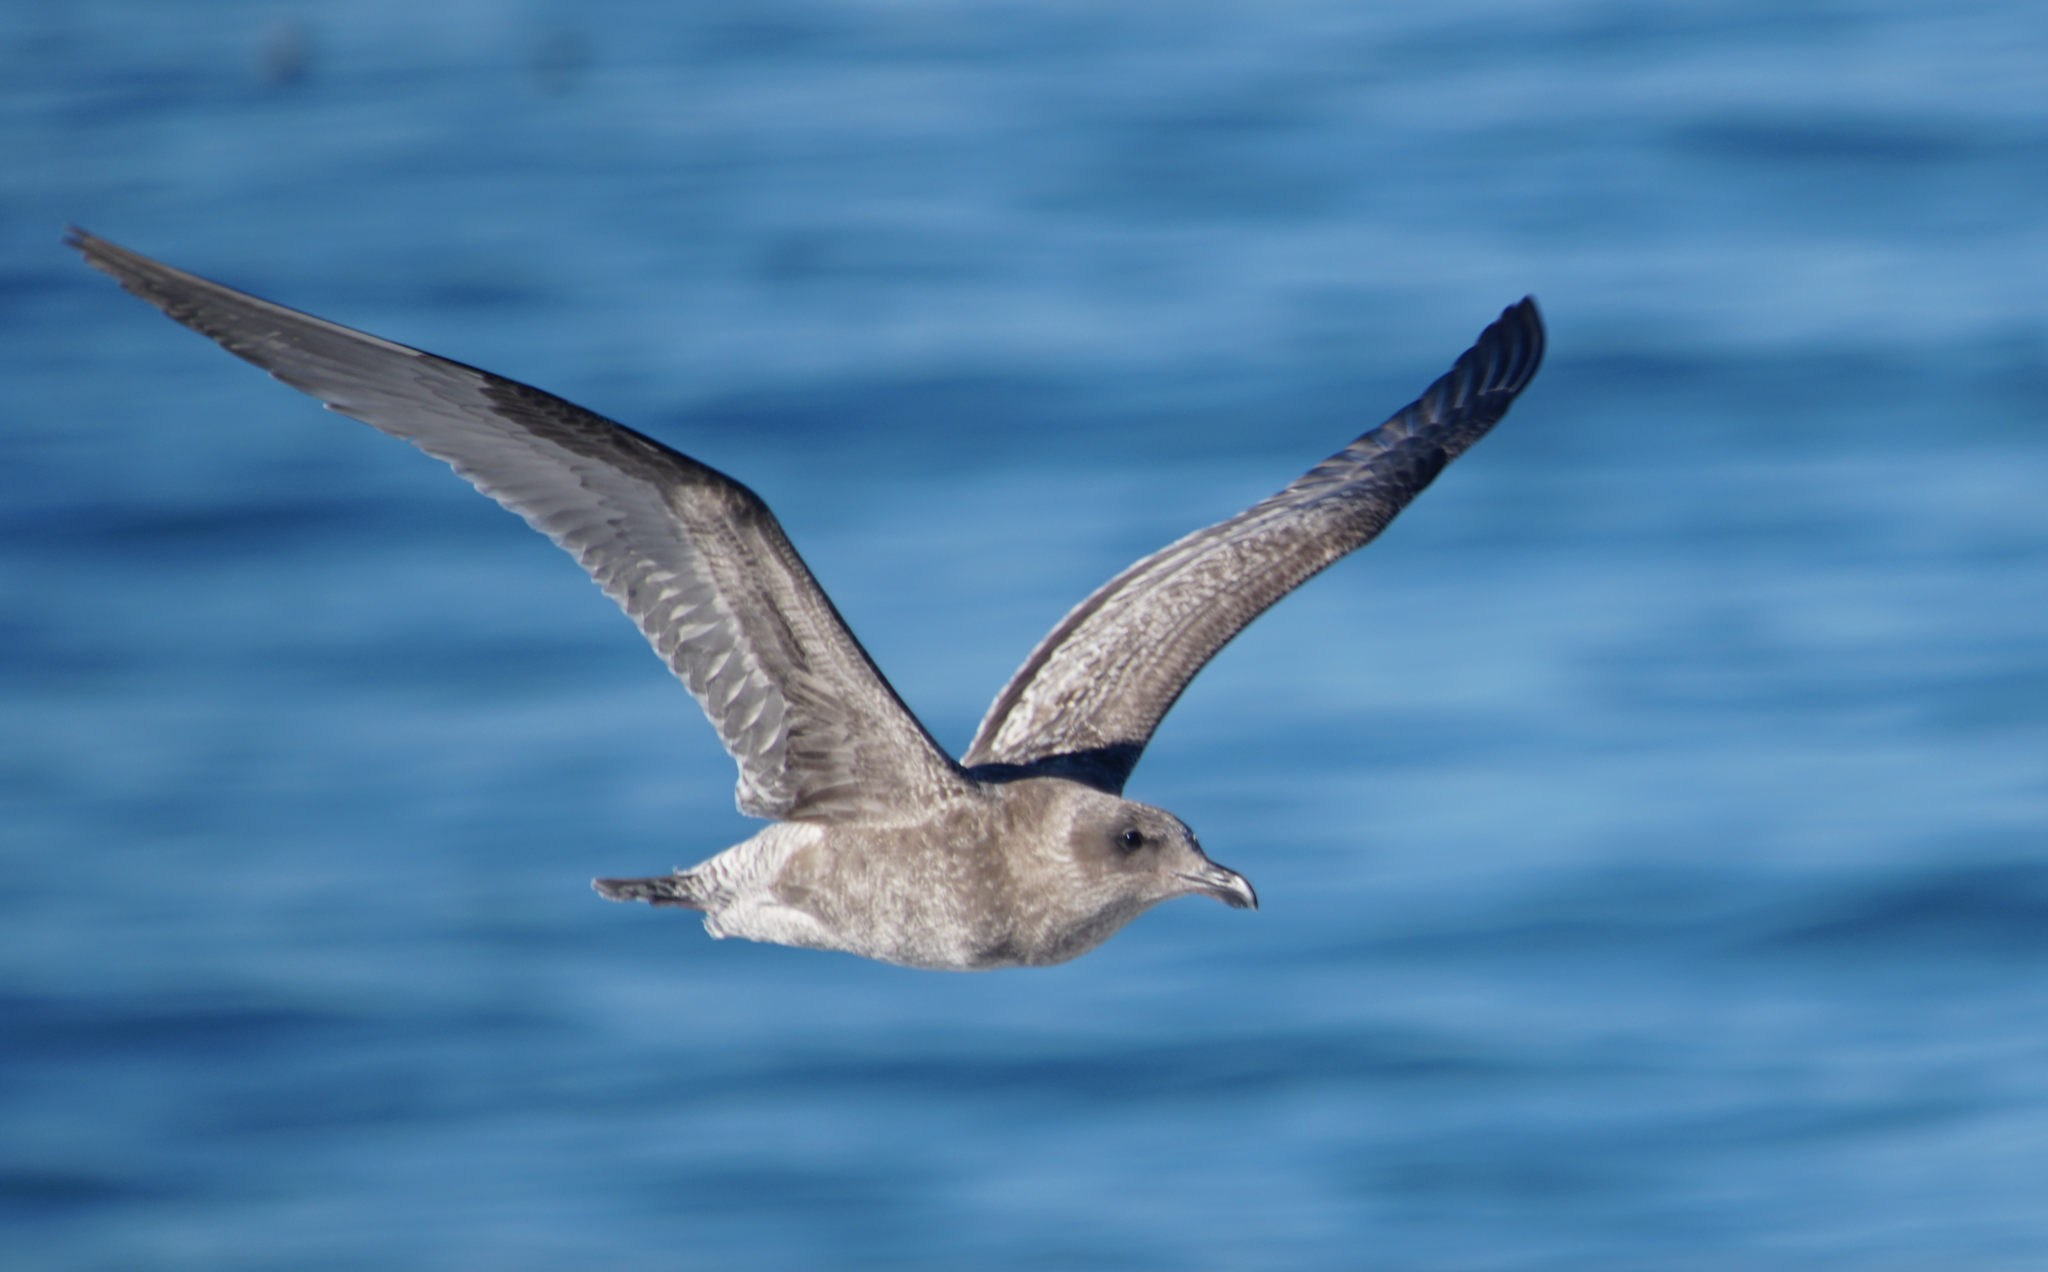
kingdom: Animalia
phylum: Chordata
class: Aves
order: Charadriiformes
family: Laridae
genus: Larus
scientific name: Larus occidentalis
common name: Western gull
